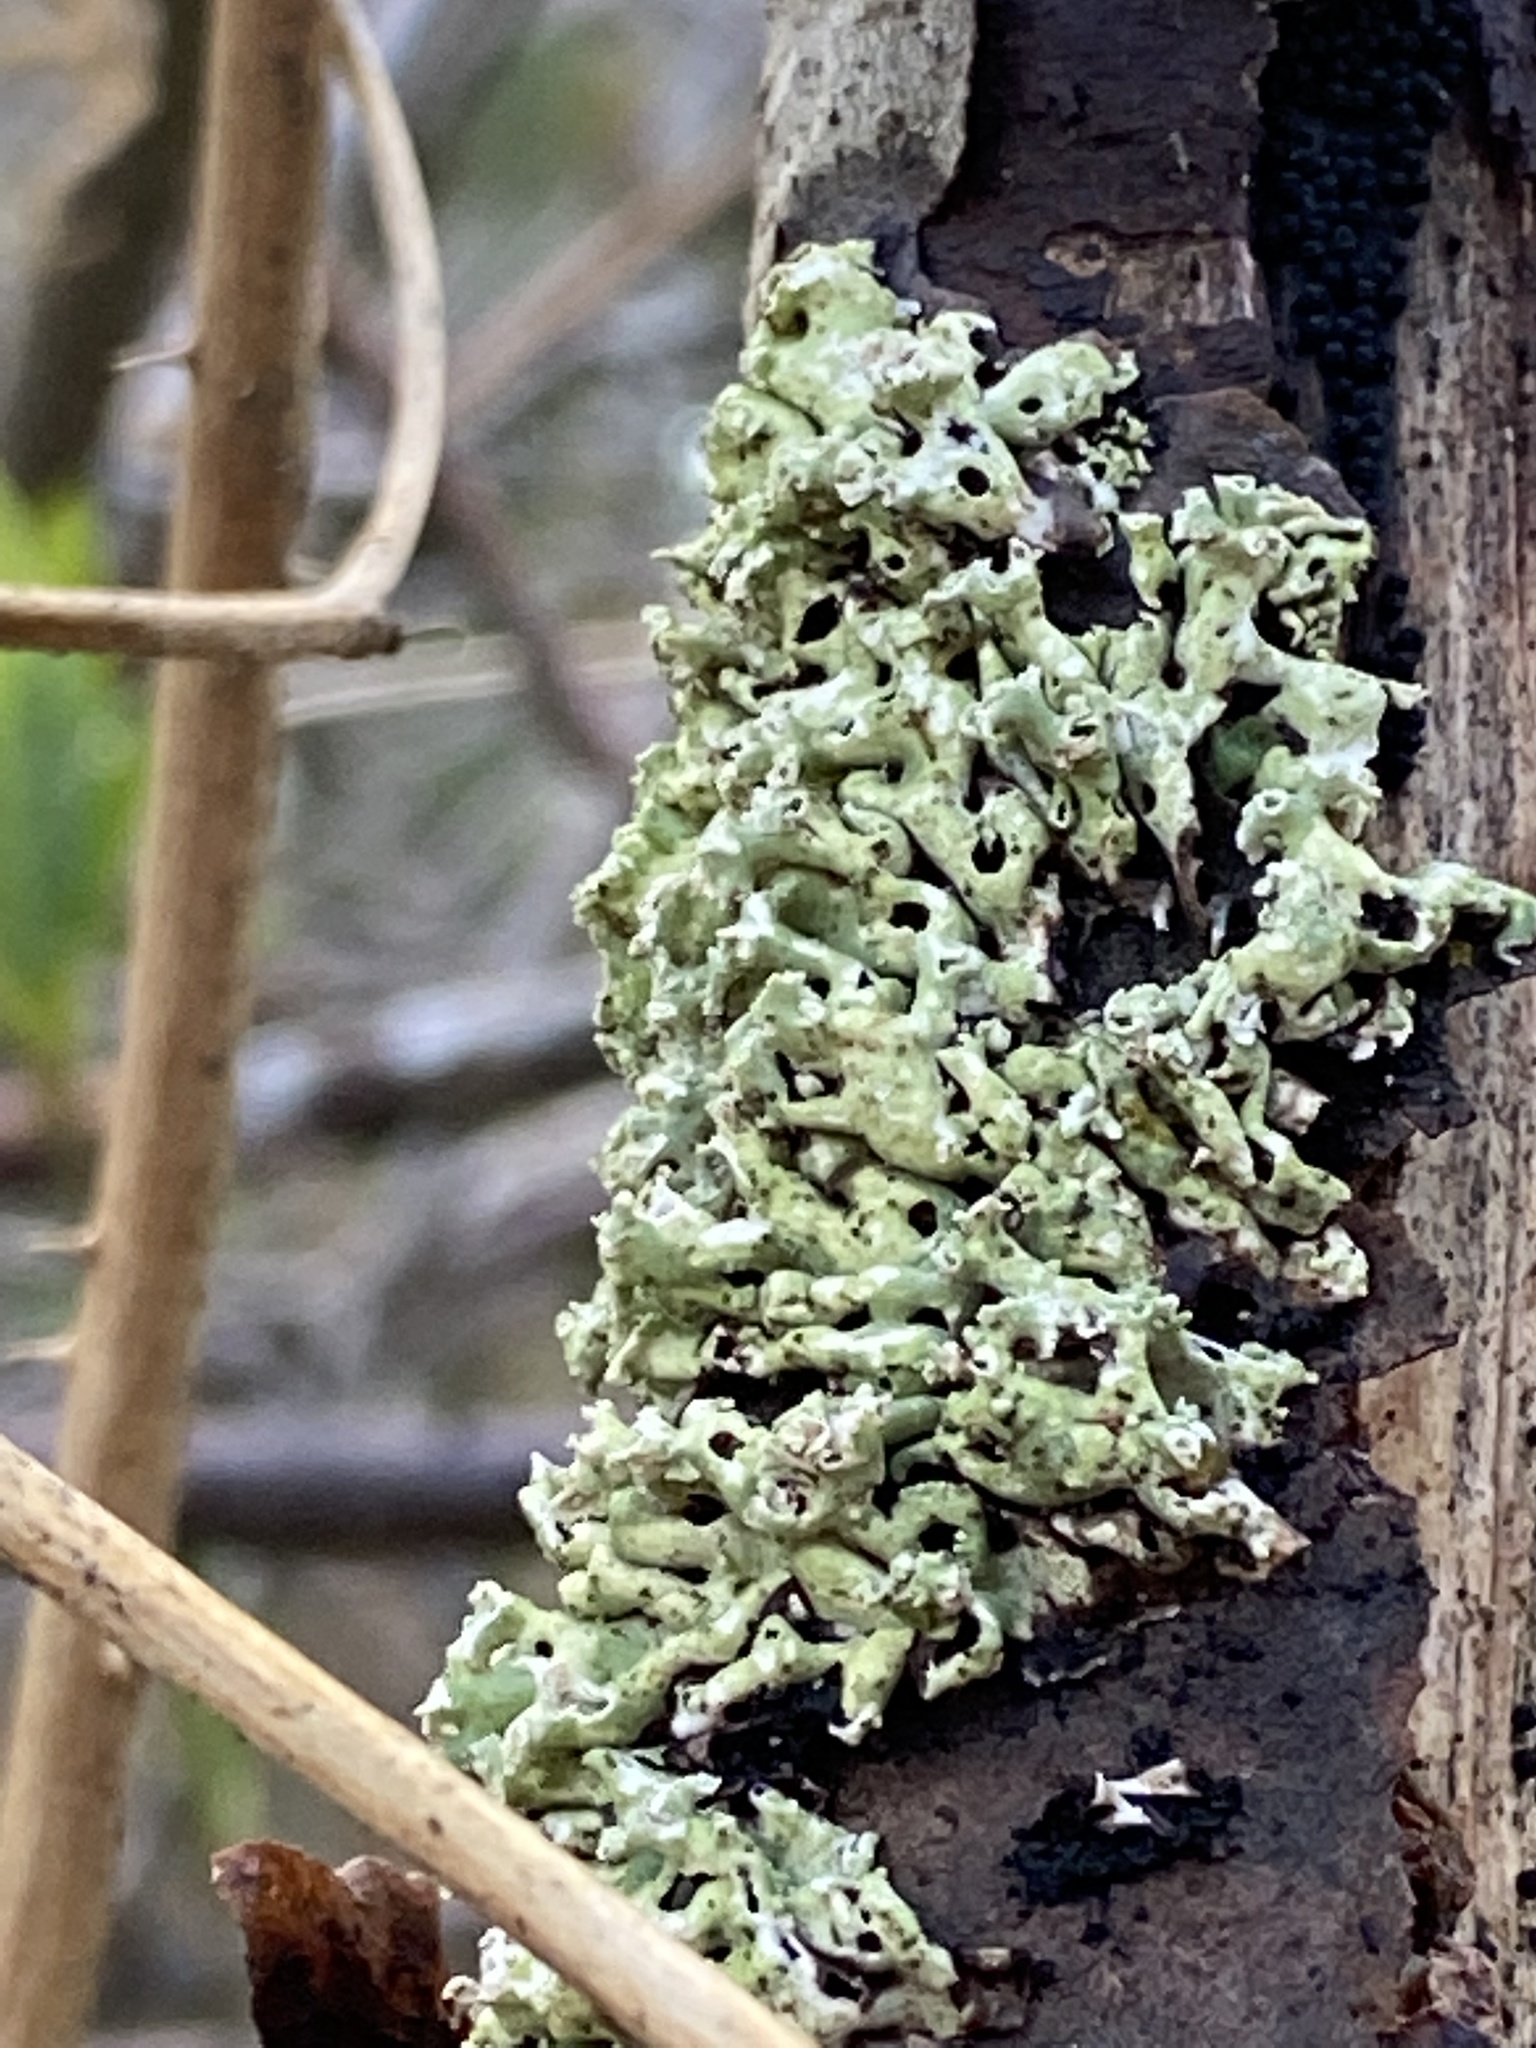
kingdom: Fungi
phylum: Ascomycota
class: Lecanoromycetes
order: Lecanorales
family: Parmeliaceae
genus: Menegazzia
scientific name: Menegazzia subsimilis
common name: Tree flute lichen
